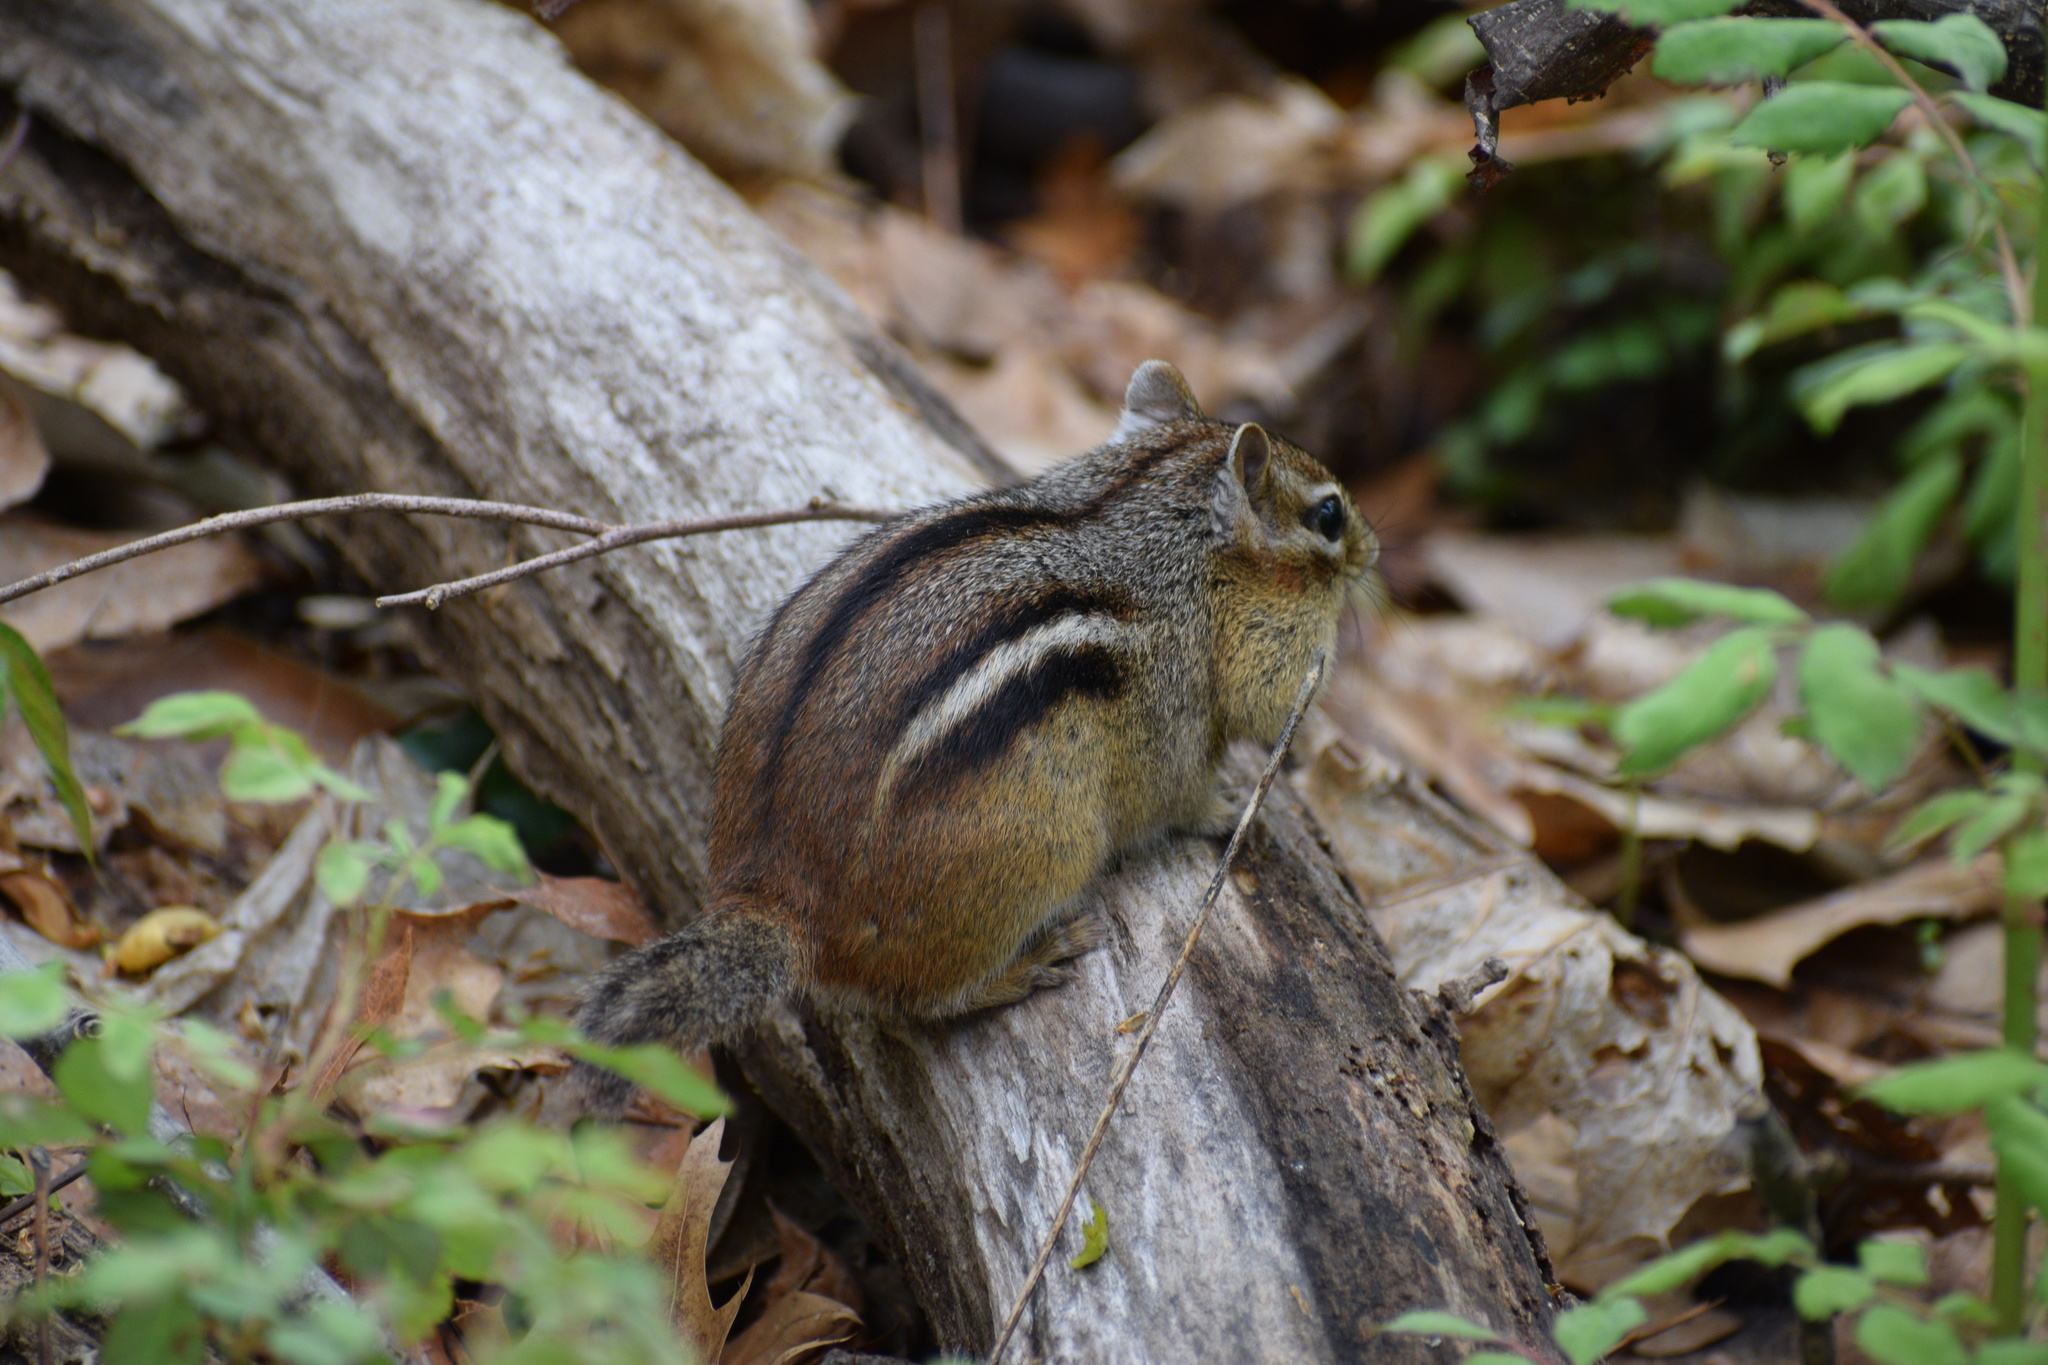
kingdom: Animalia
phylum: Chordata
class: Mammalia
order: Rodentia
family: Sciuridae
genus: Tamias
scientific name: Tamias striatus
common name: Eastern chipmunk
